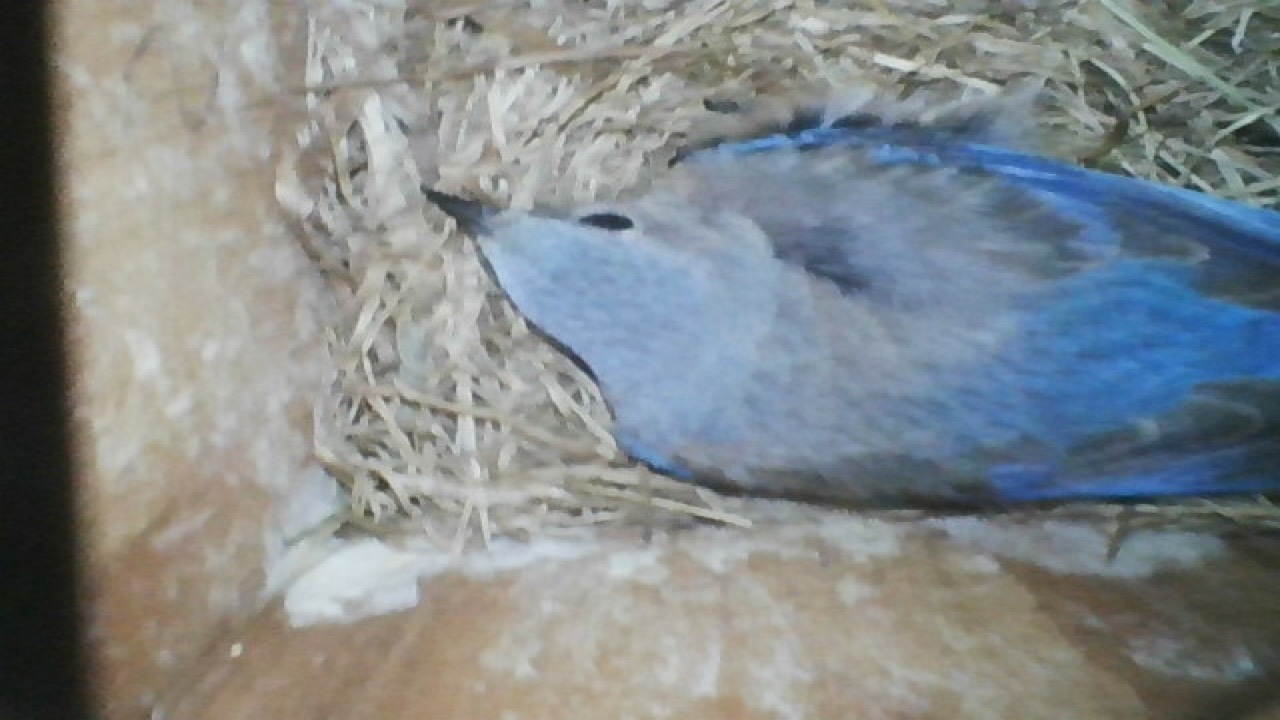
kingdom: Animalia
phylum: Chordata
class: Aves
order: Passeriformes
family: Turdidae
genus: Sialia
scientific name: Sialia mexicana
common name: Western bluebird
